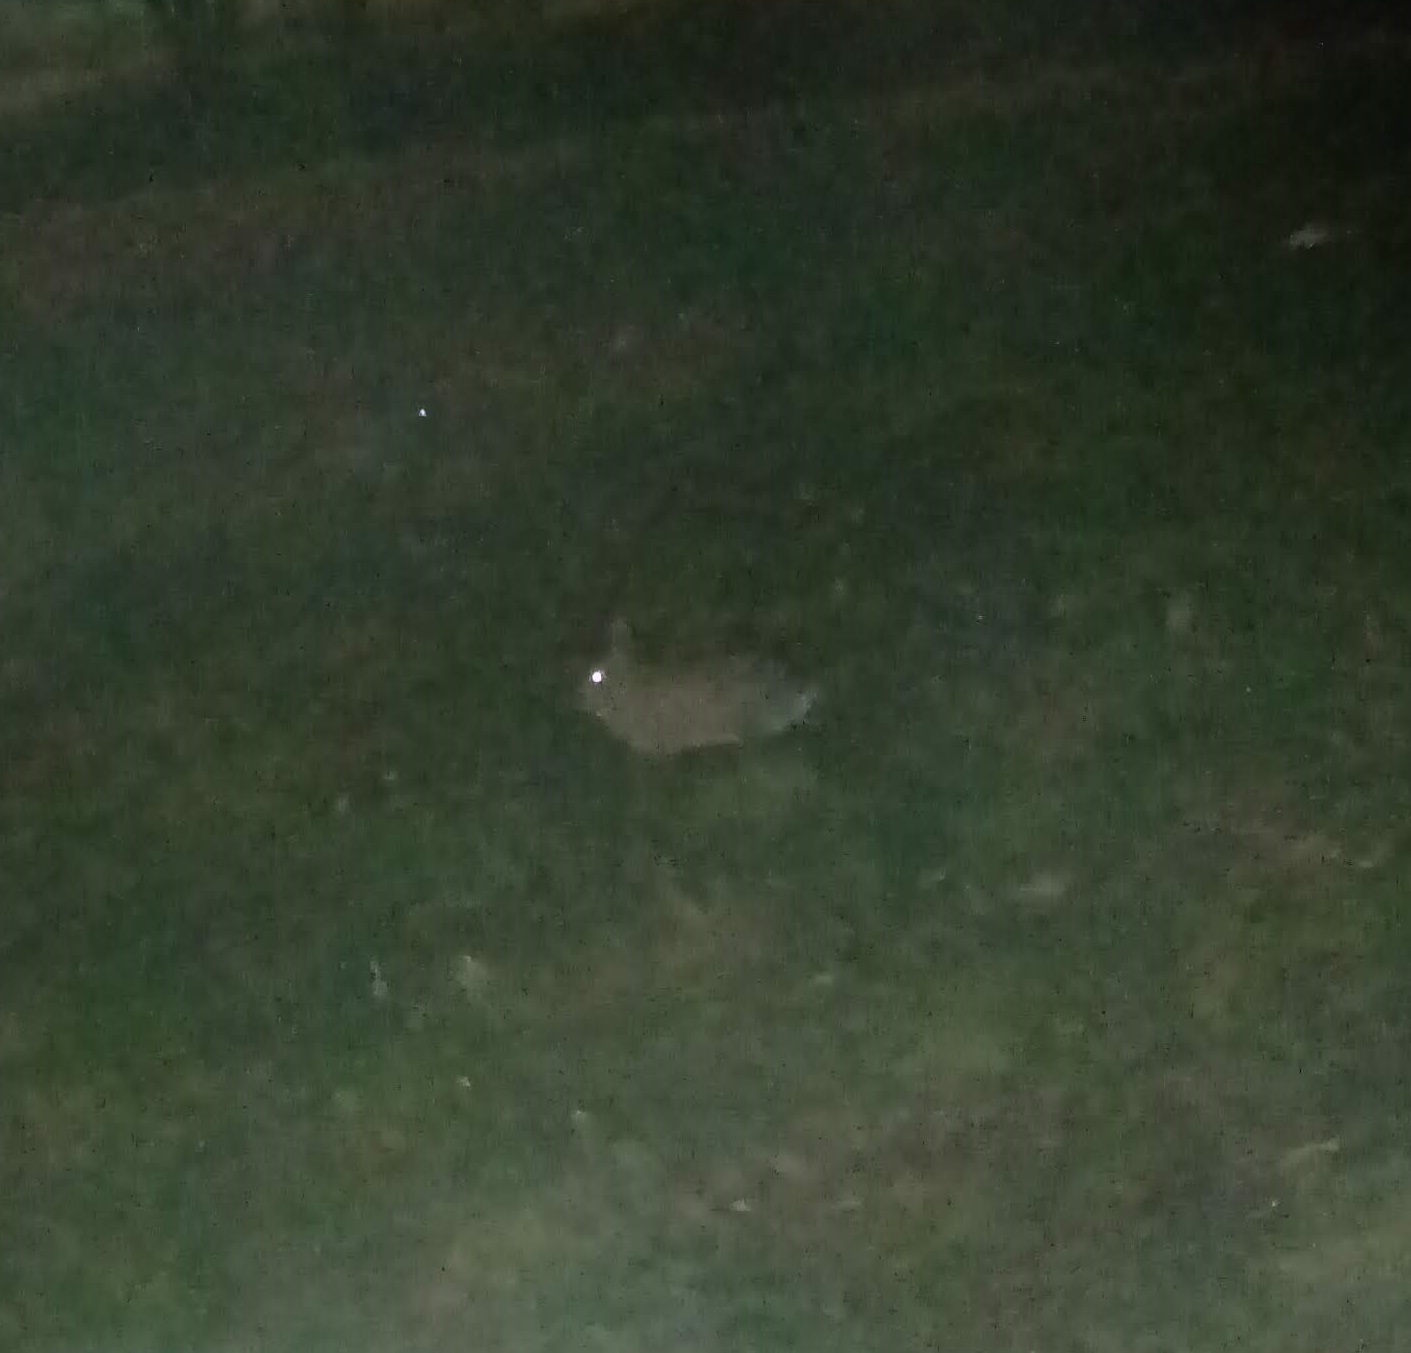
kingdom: Animalia
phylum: Chordata
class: Mammalia
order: Lagomorpha
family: Leporidae
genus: Sylvilagus
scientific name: Sylvilagus floridanus
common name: Eastern cottontail
